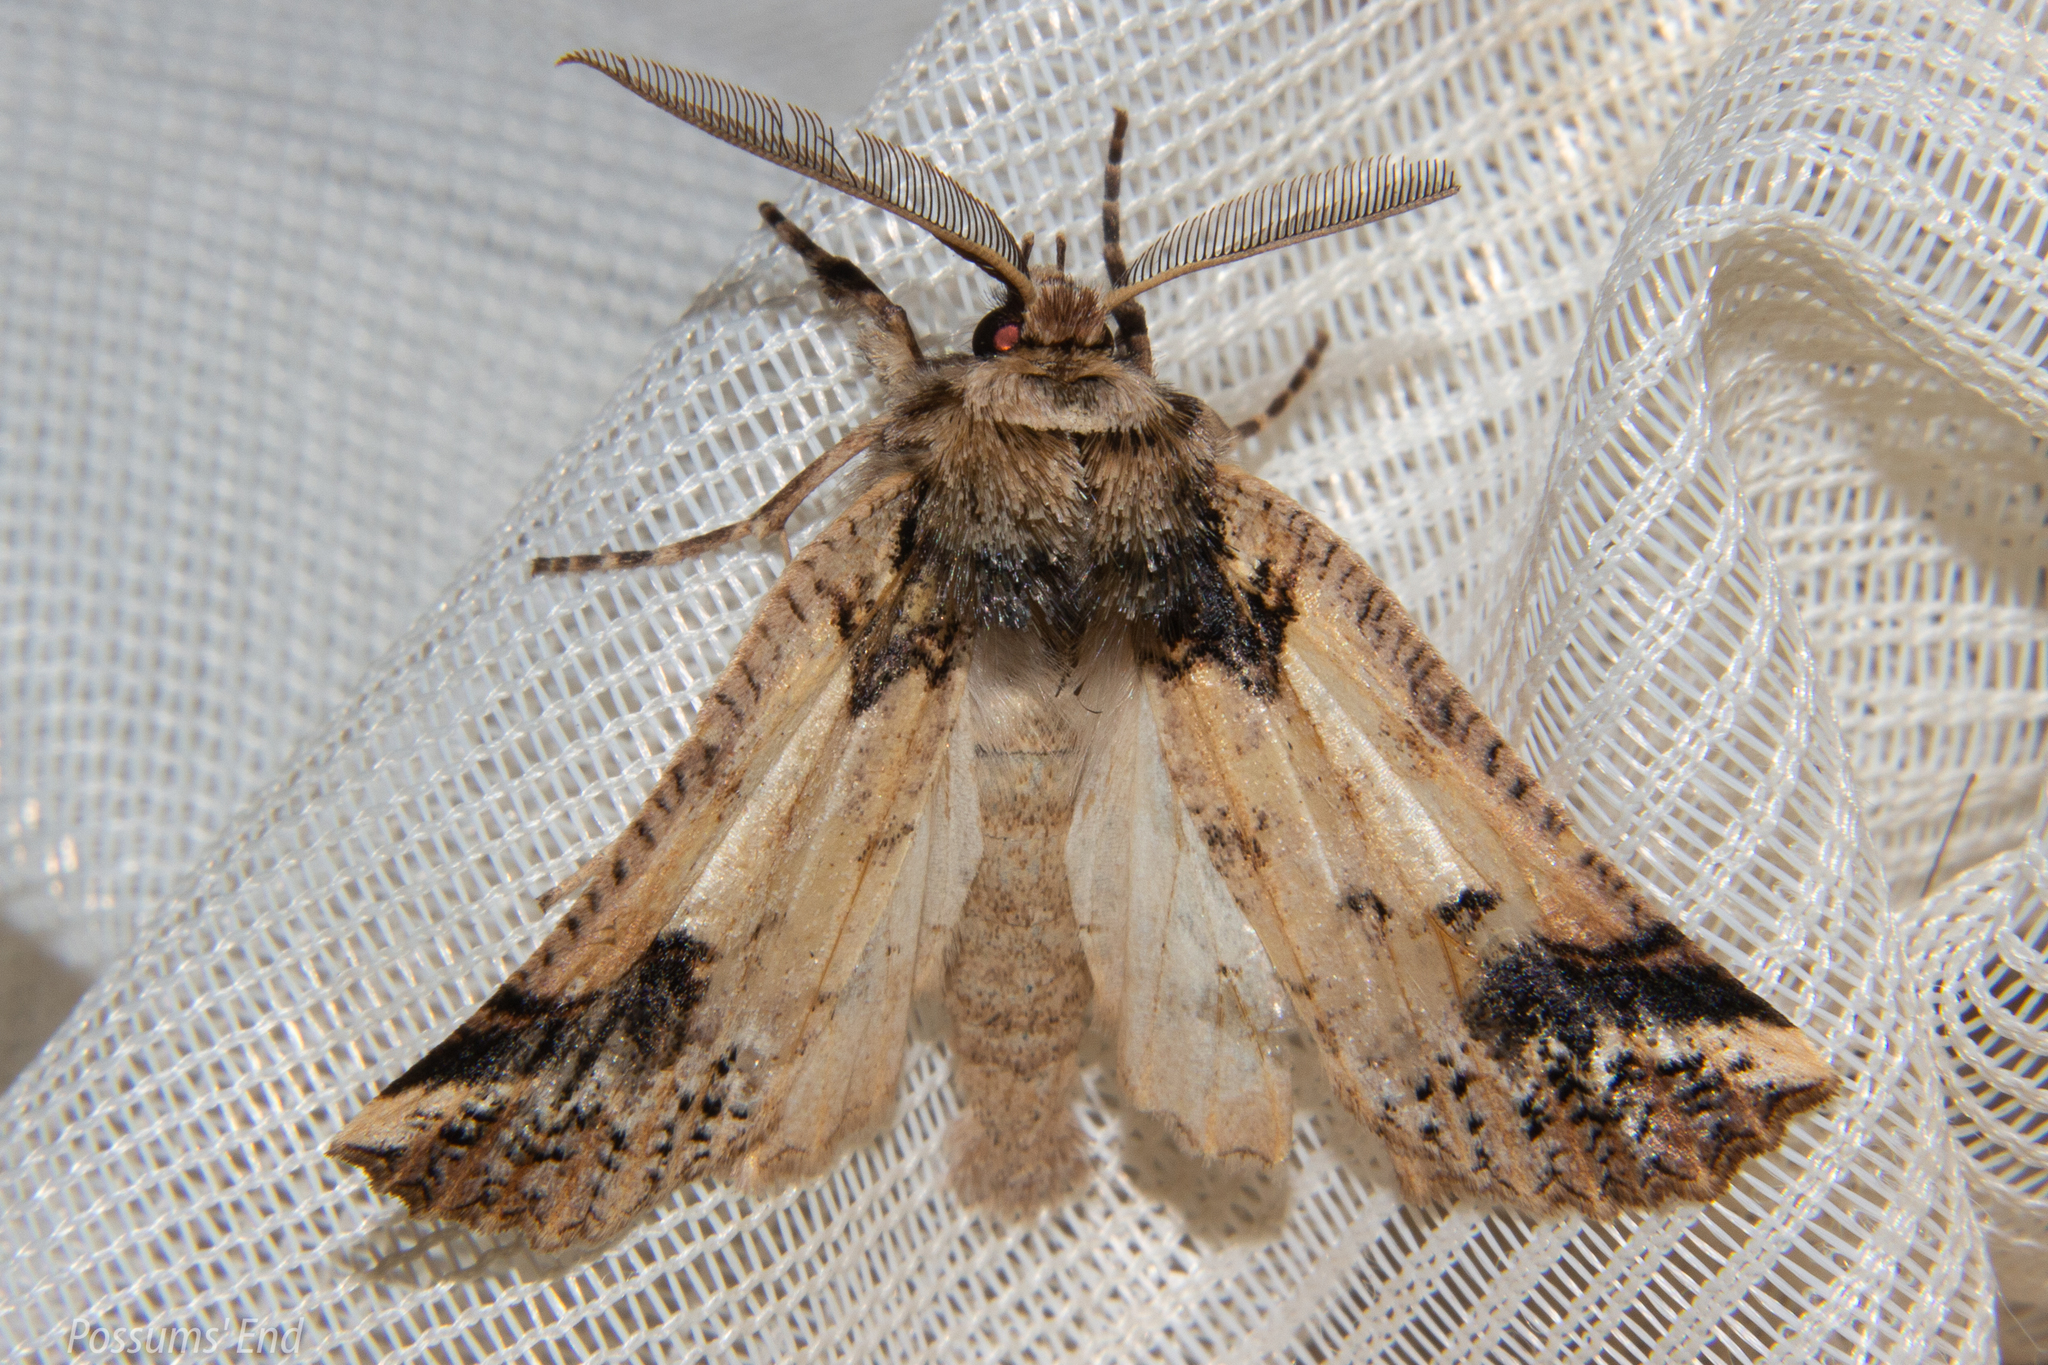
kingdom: Animalia
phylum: Arthropoda
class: Insecta
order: Lepidoptera
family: Geometridae
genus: Declana
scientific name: Declana
